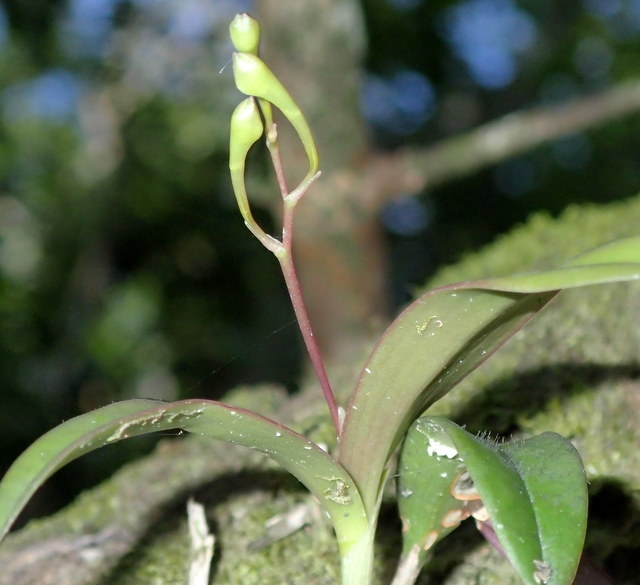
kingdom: Plantae
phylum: Tracheophyta
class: Liliopsida
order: Asparagales
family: Orchidaceae
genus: Epidendrum
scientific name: Epidendrum conopseum
